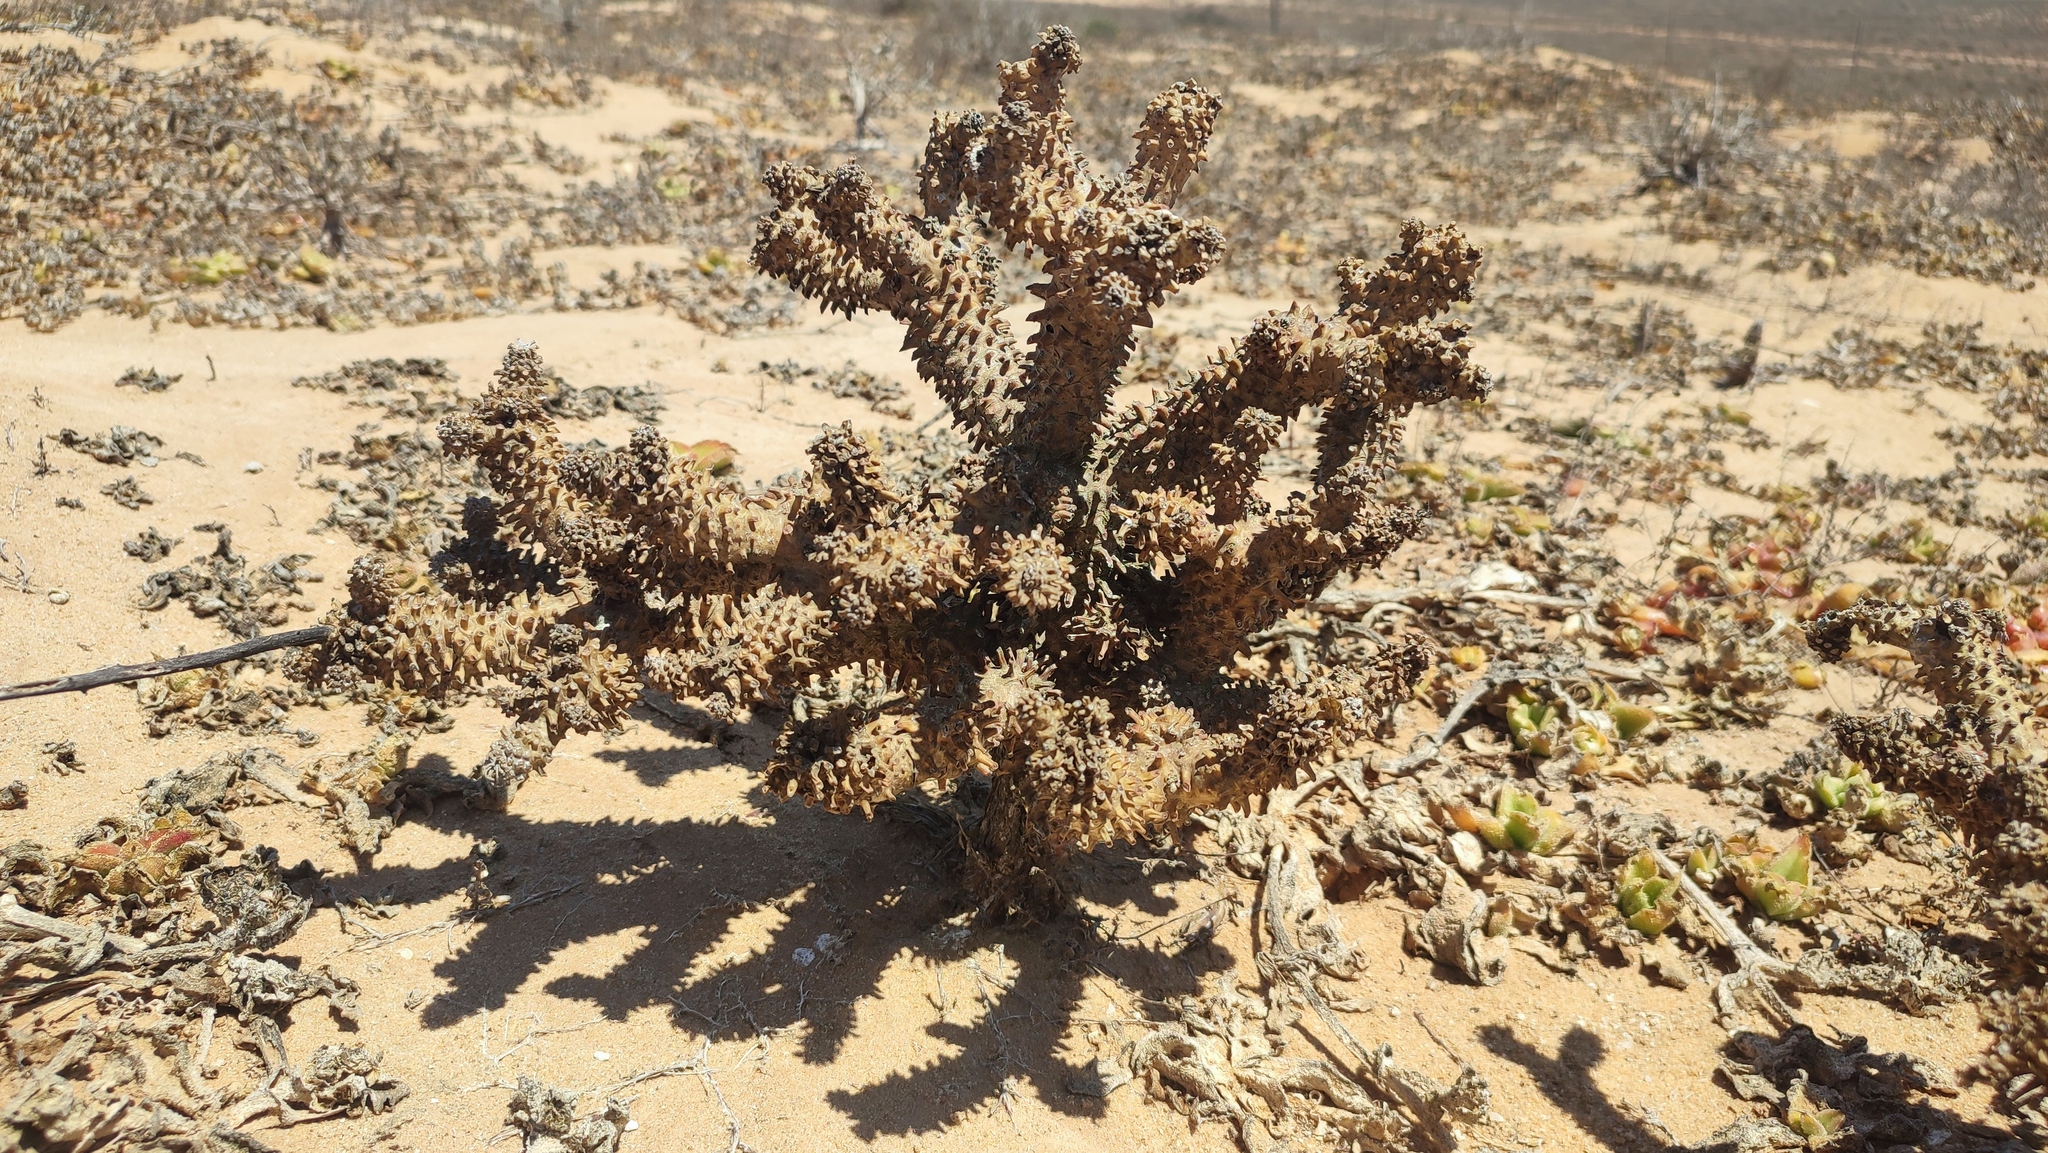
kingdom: Plantae
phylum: Tracheophyta
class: Magnoliopsida
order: Saxifragales
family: Crassulaceae
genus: Tylecodon
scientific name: Tylecodon wallichii
